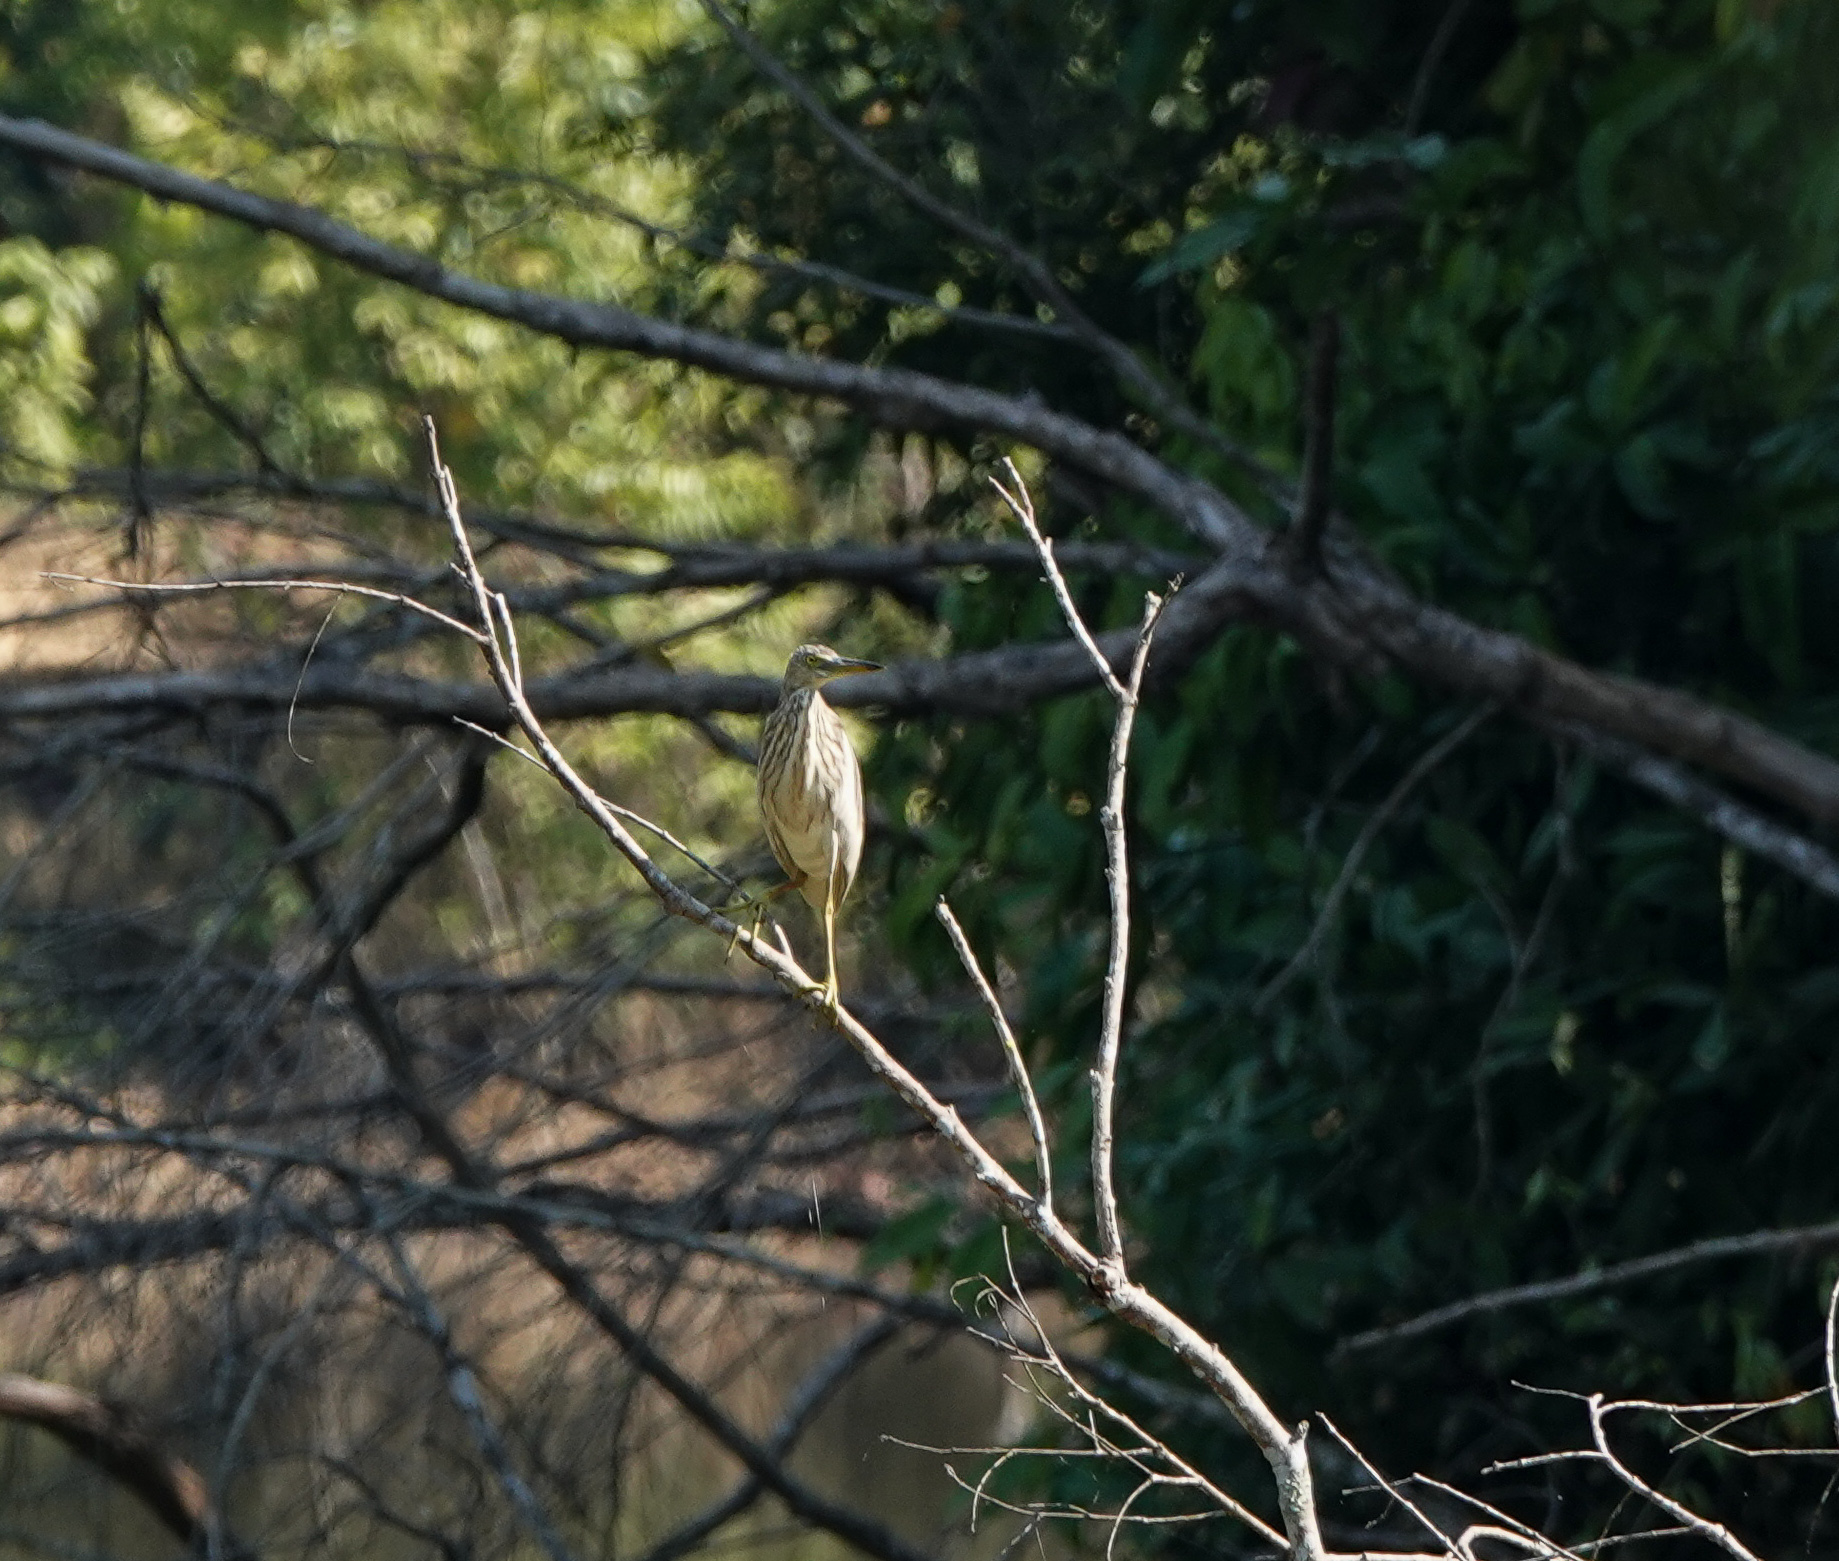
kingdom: Animalia
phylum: Chordata
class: Aves
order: Pelecaniformes
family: Ardeidae
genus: Ardeola
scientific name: Ardeola grayii
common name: Indian pond heron
